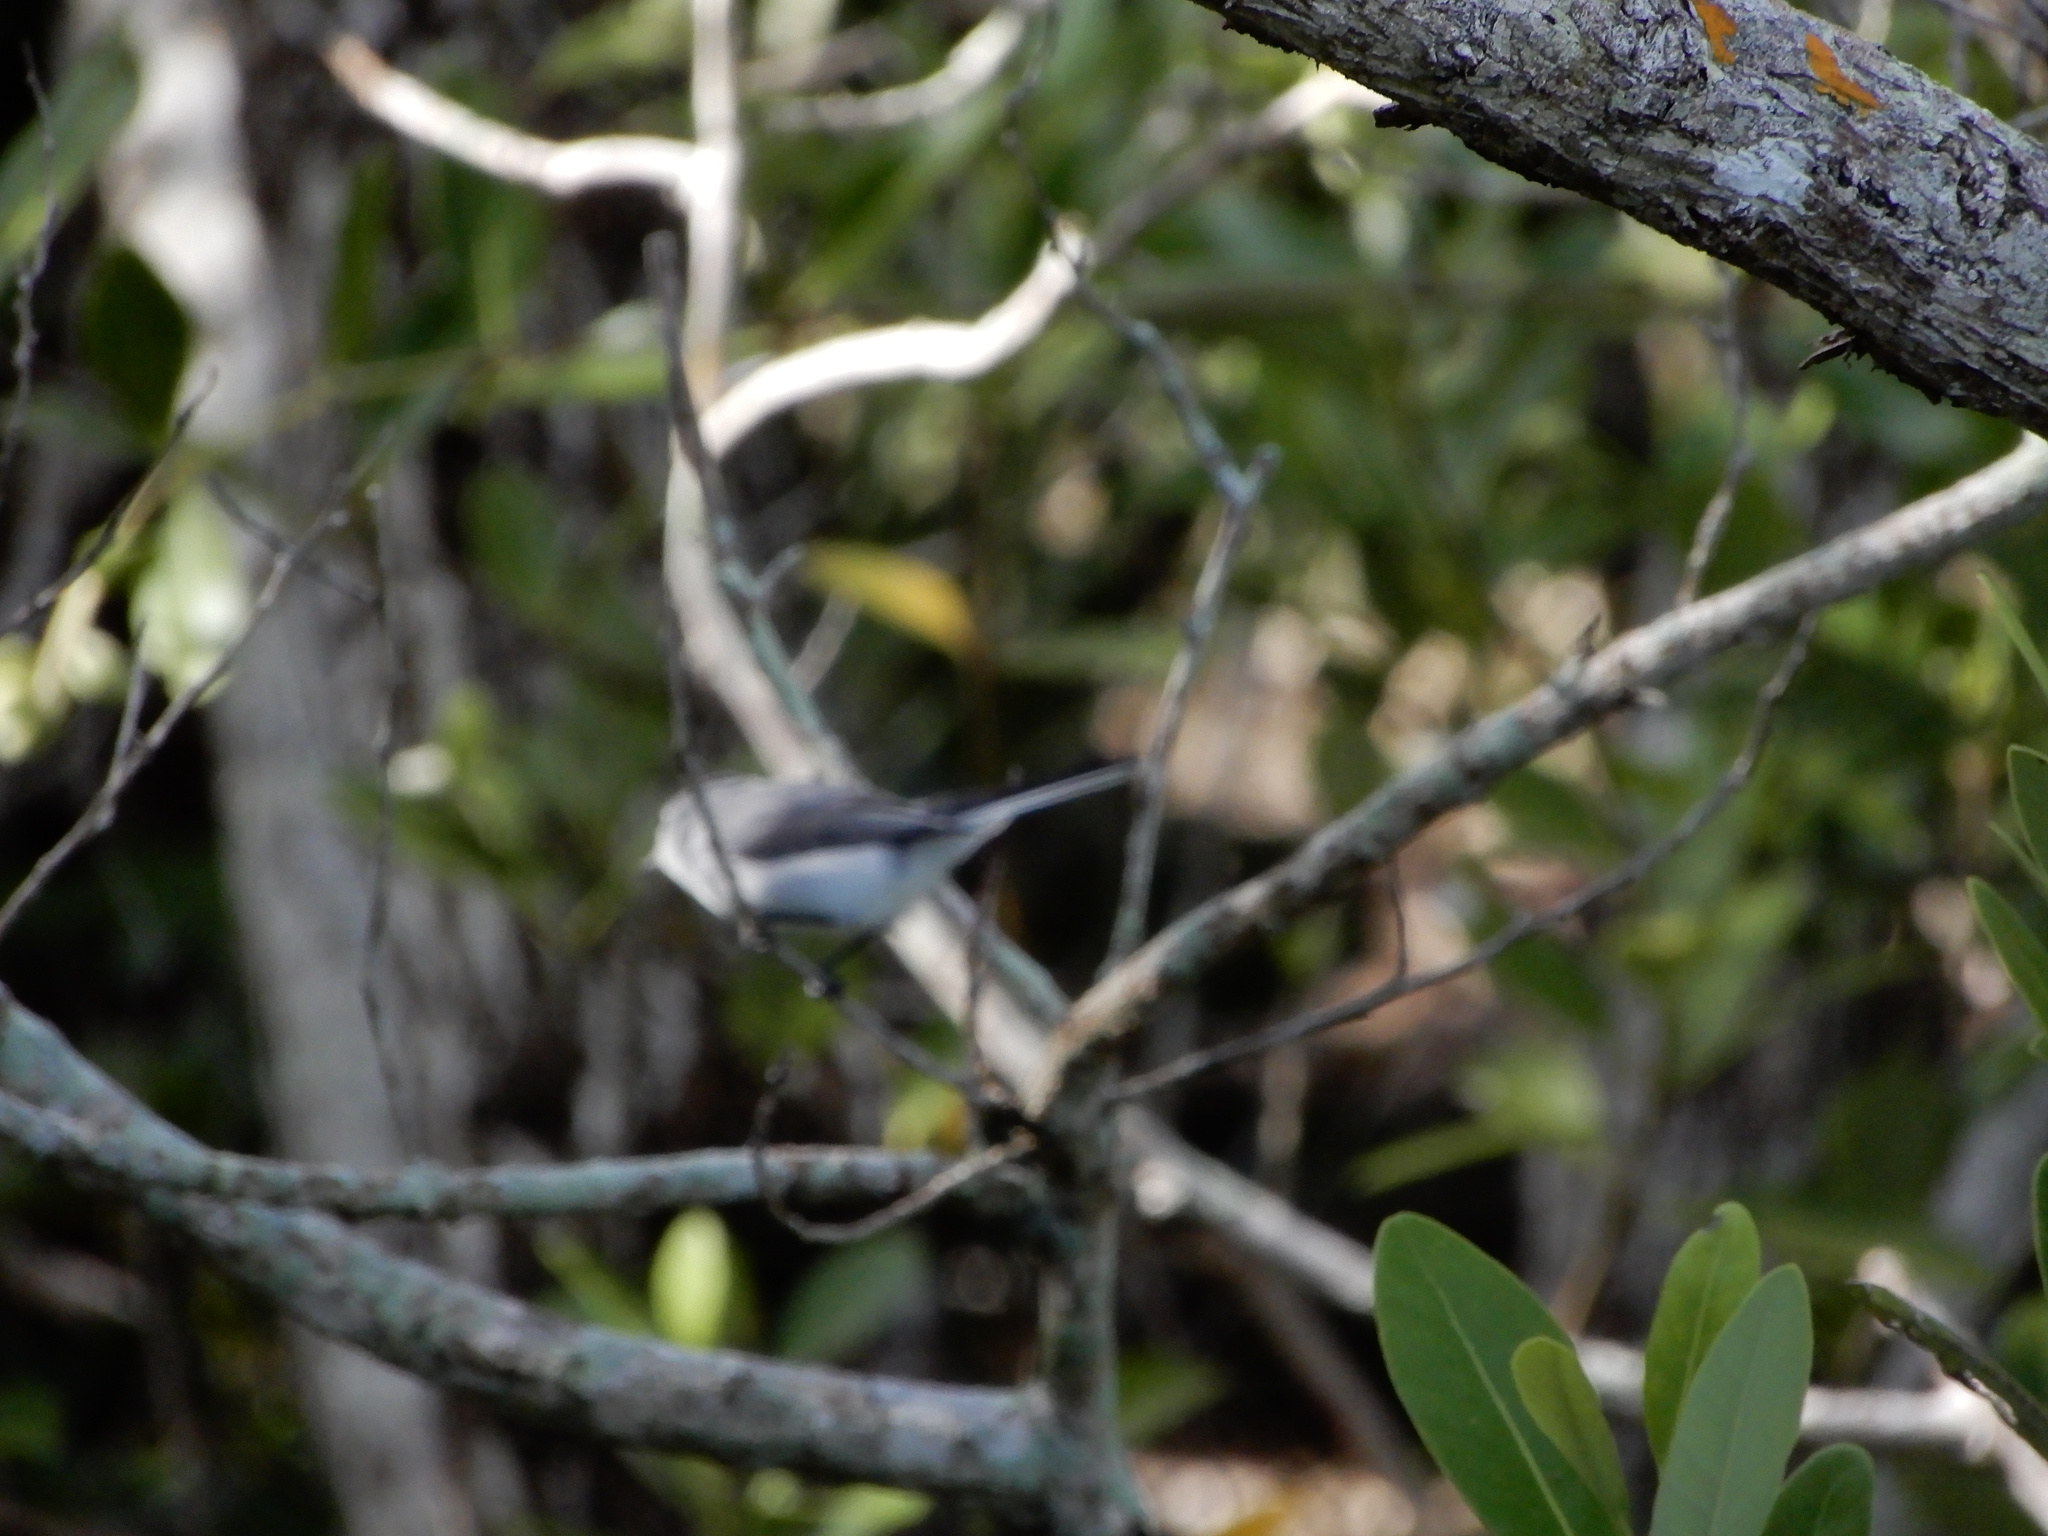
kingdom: Animalia
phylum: Chordata
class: Aves
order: Passeriformes
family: Polioptilidae
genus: Polioptila
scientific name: Polioptila caerulea
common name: Blue-gray gnatcatcher
